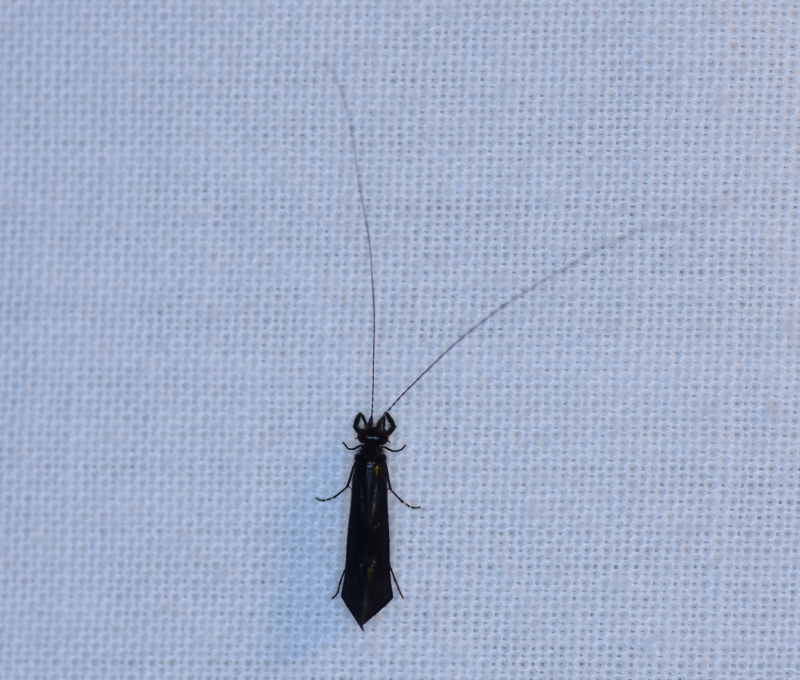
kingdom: Animalia
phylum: Arthropoda
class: Insecta
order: Trichoptera
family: Leptoceridae
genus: Mystacides
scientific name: Mystacides sepulchralis
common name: Black dancer caddisfly
